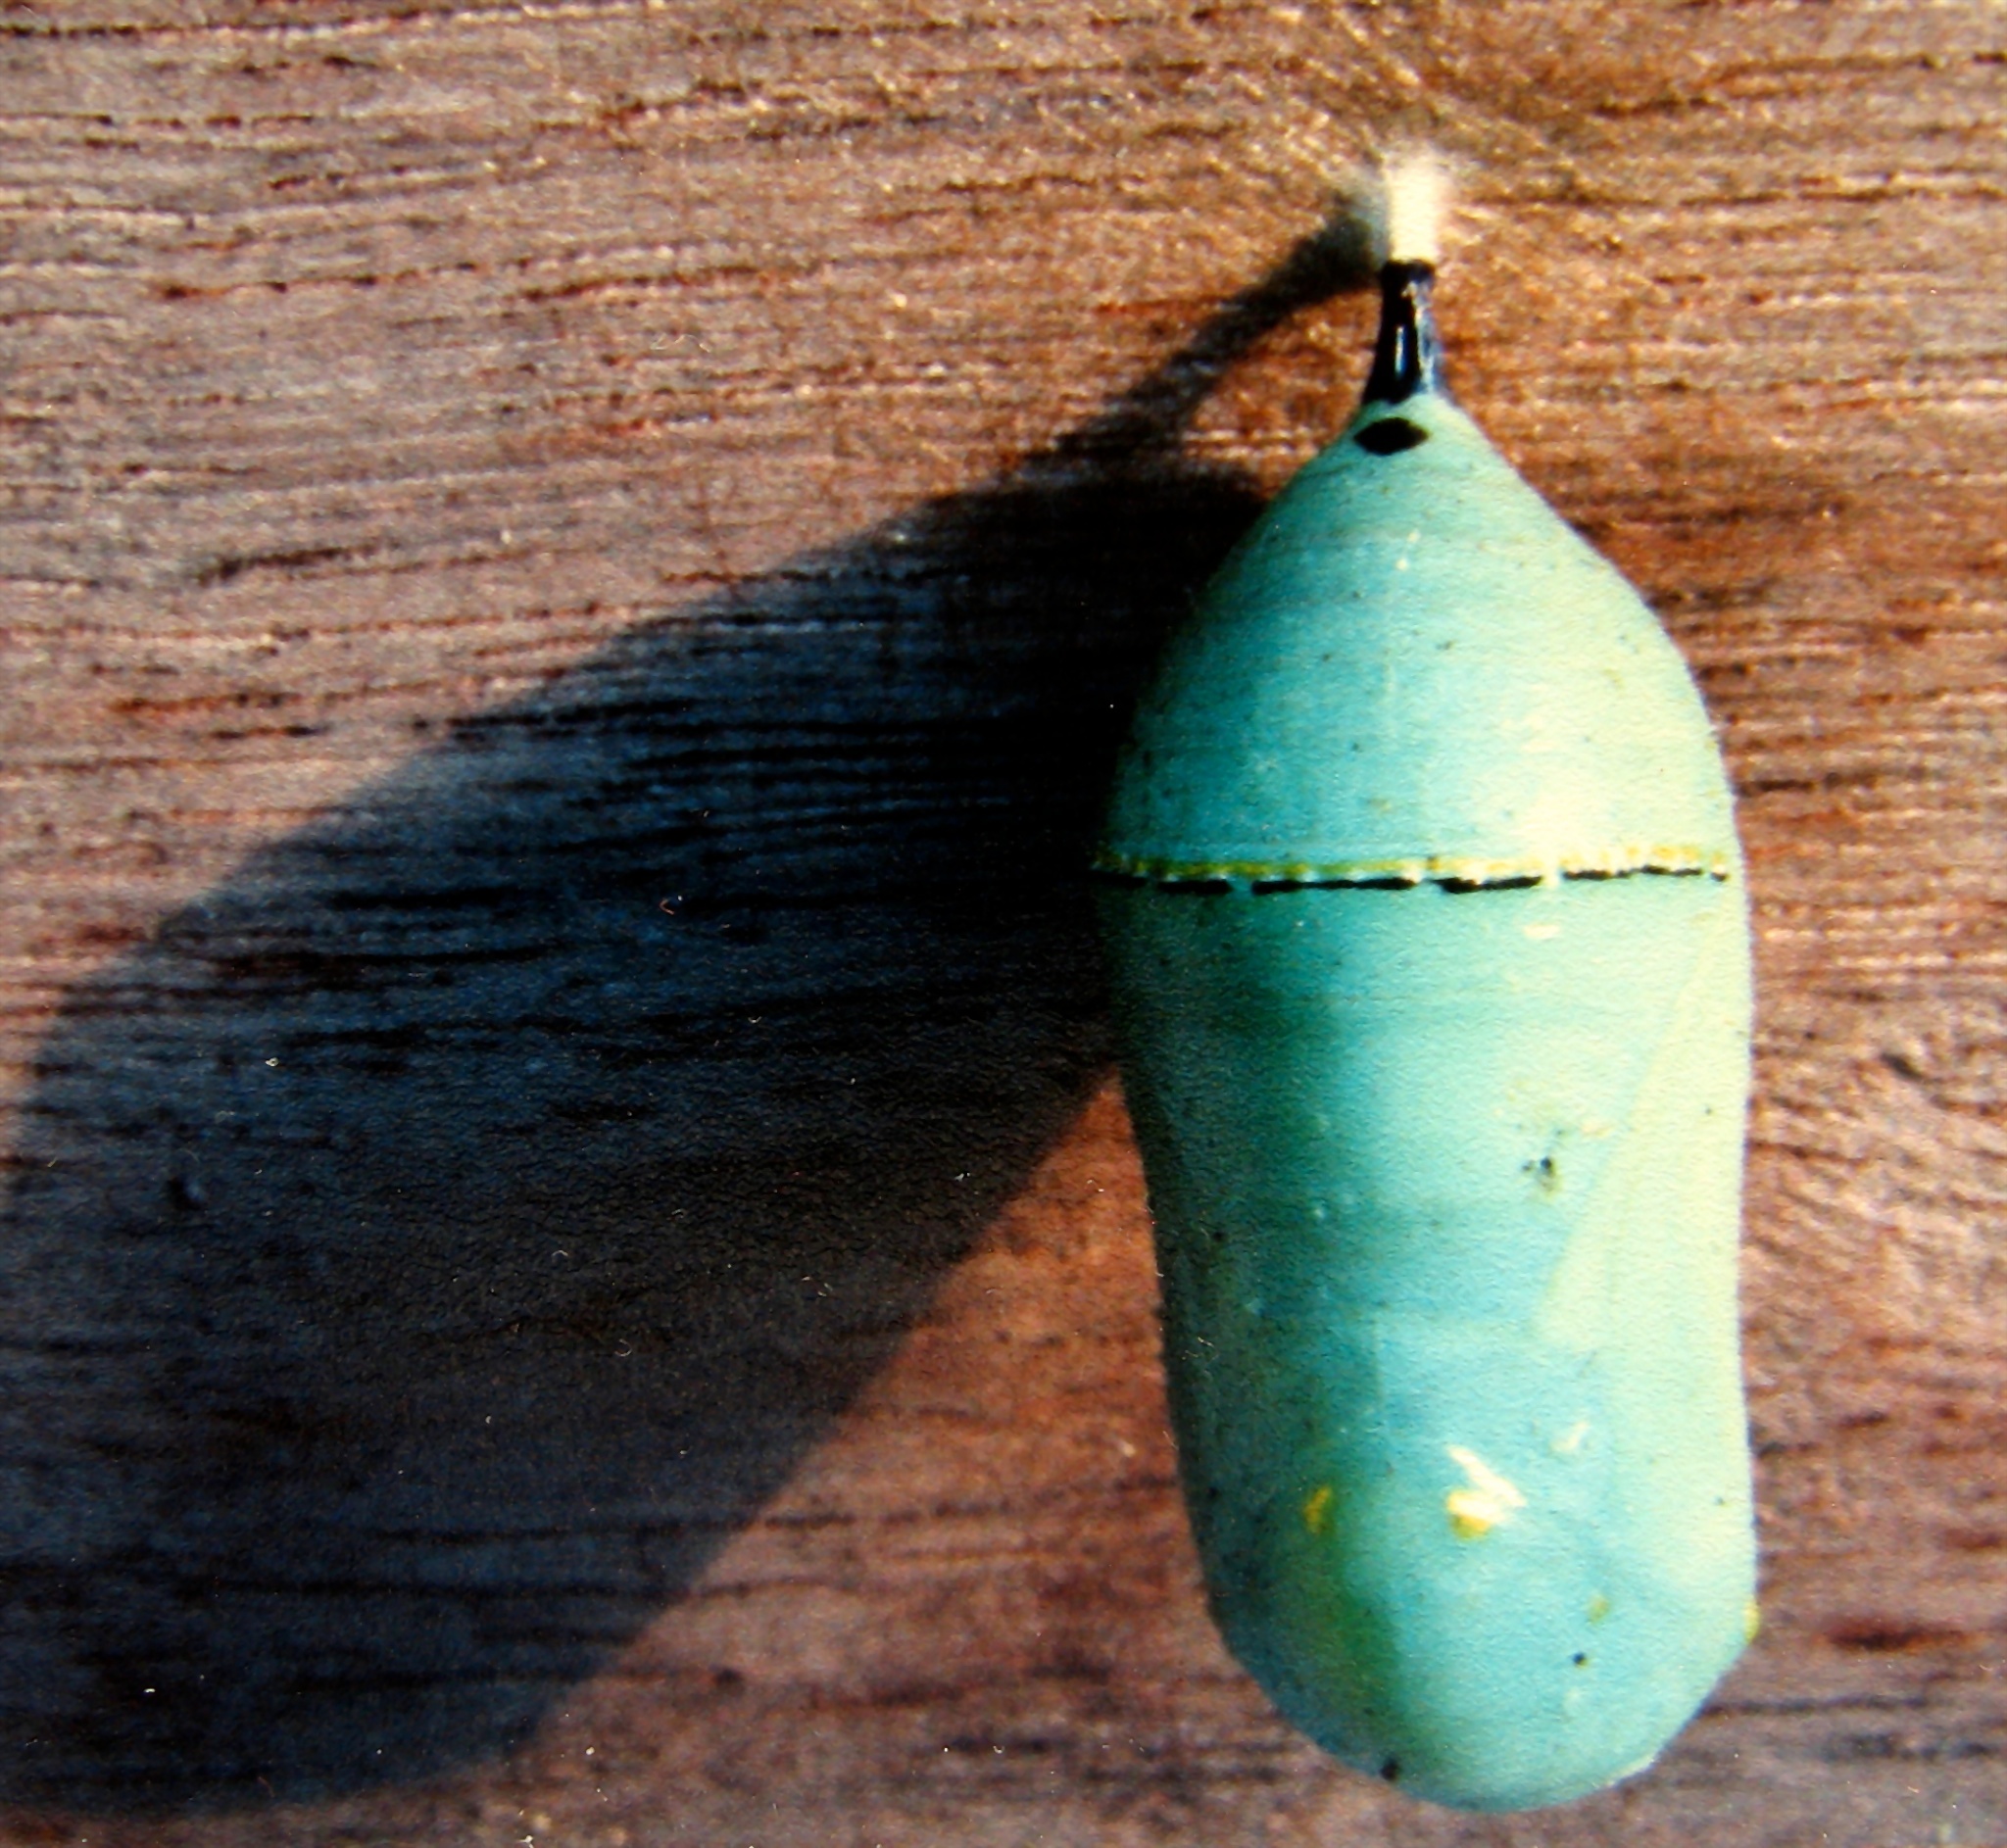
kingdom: Animalia
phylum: Arthropoda
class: Insecta
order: Lepidoptera
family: Nymphalidae
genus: Danaus
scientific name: Danaus plexippus
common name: Monarch
